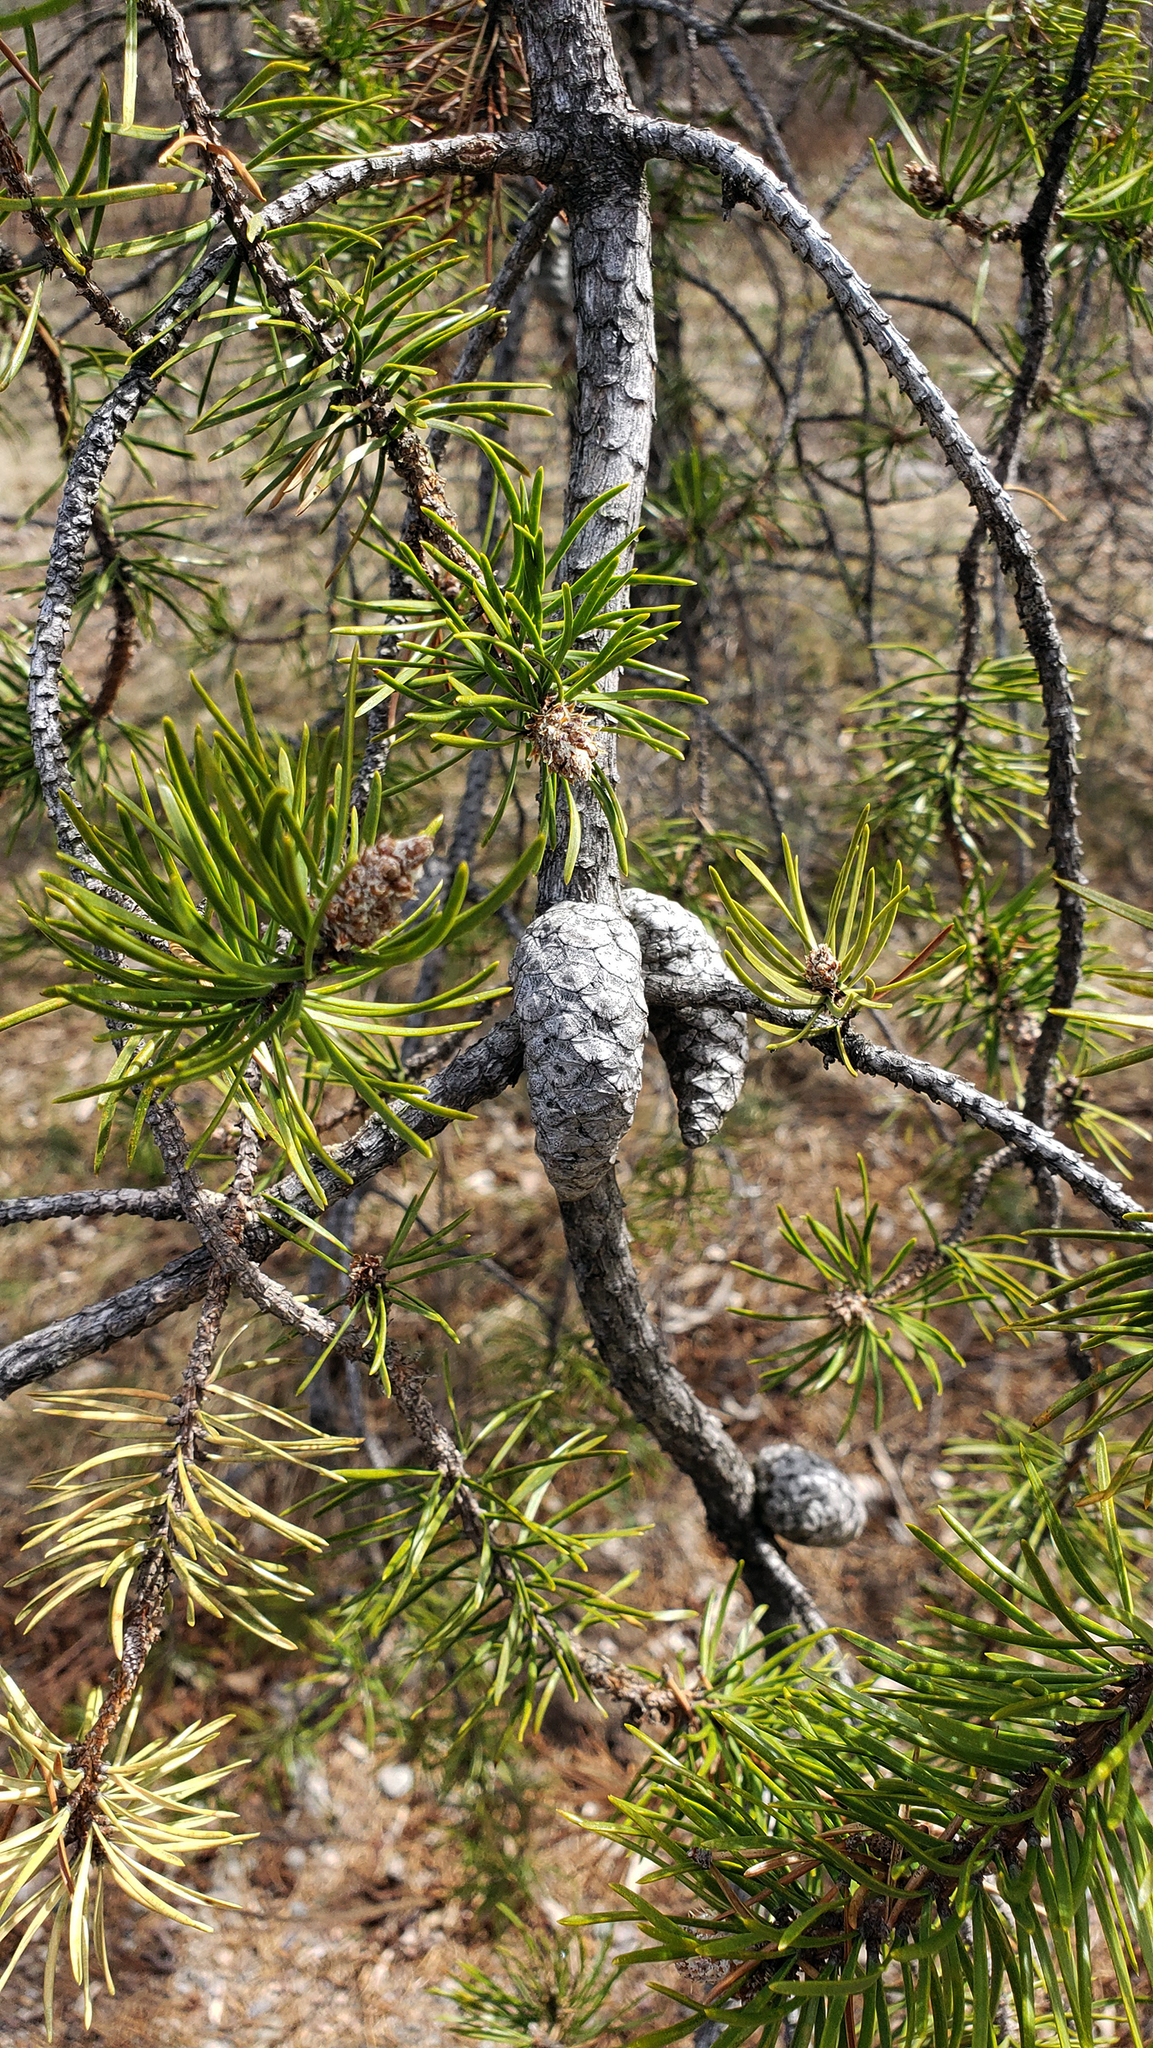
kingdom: Plantae
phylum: Tracheophyta
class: Pinopsida
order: Pinales
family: Pinaceae
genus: Pinus
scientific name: Pinus banksiana
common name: Jack pine
